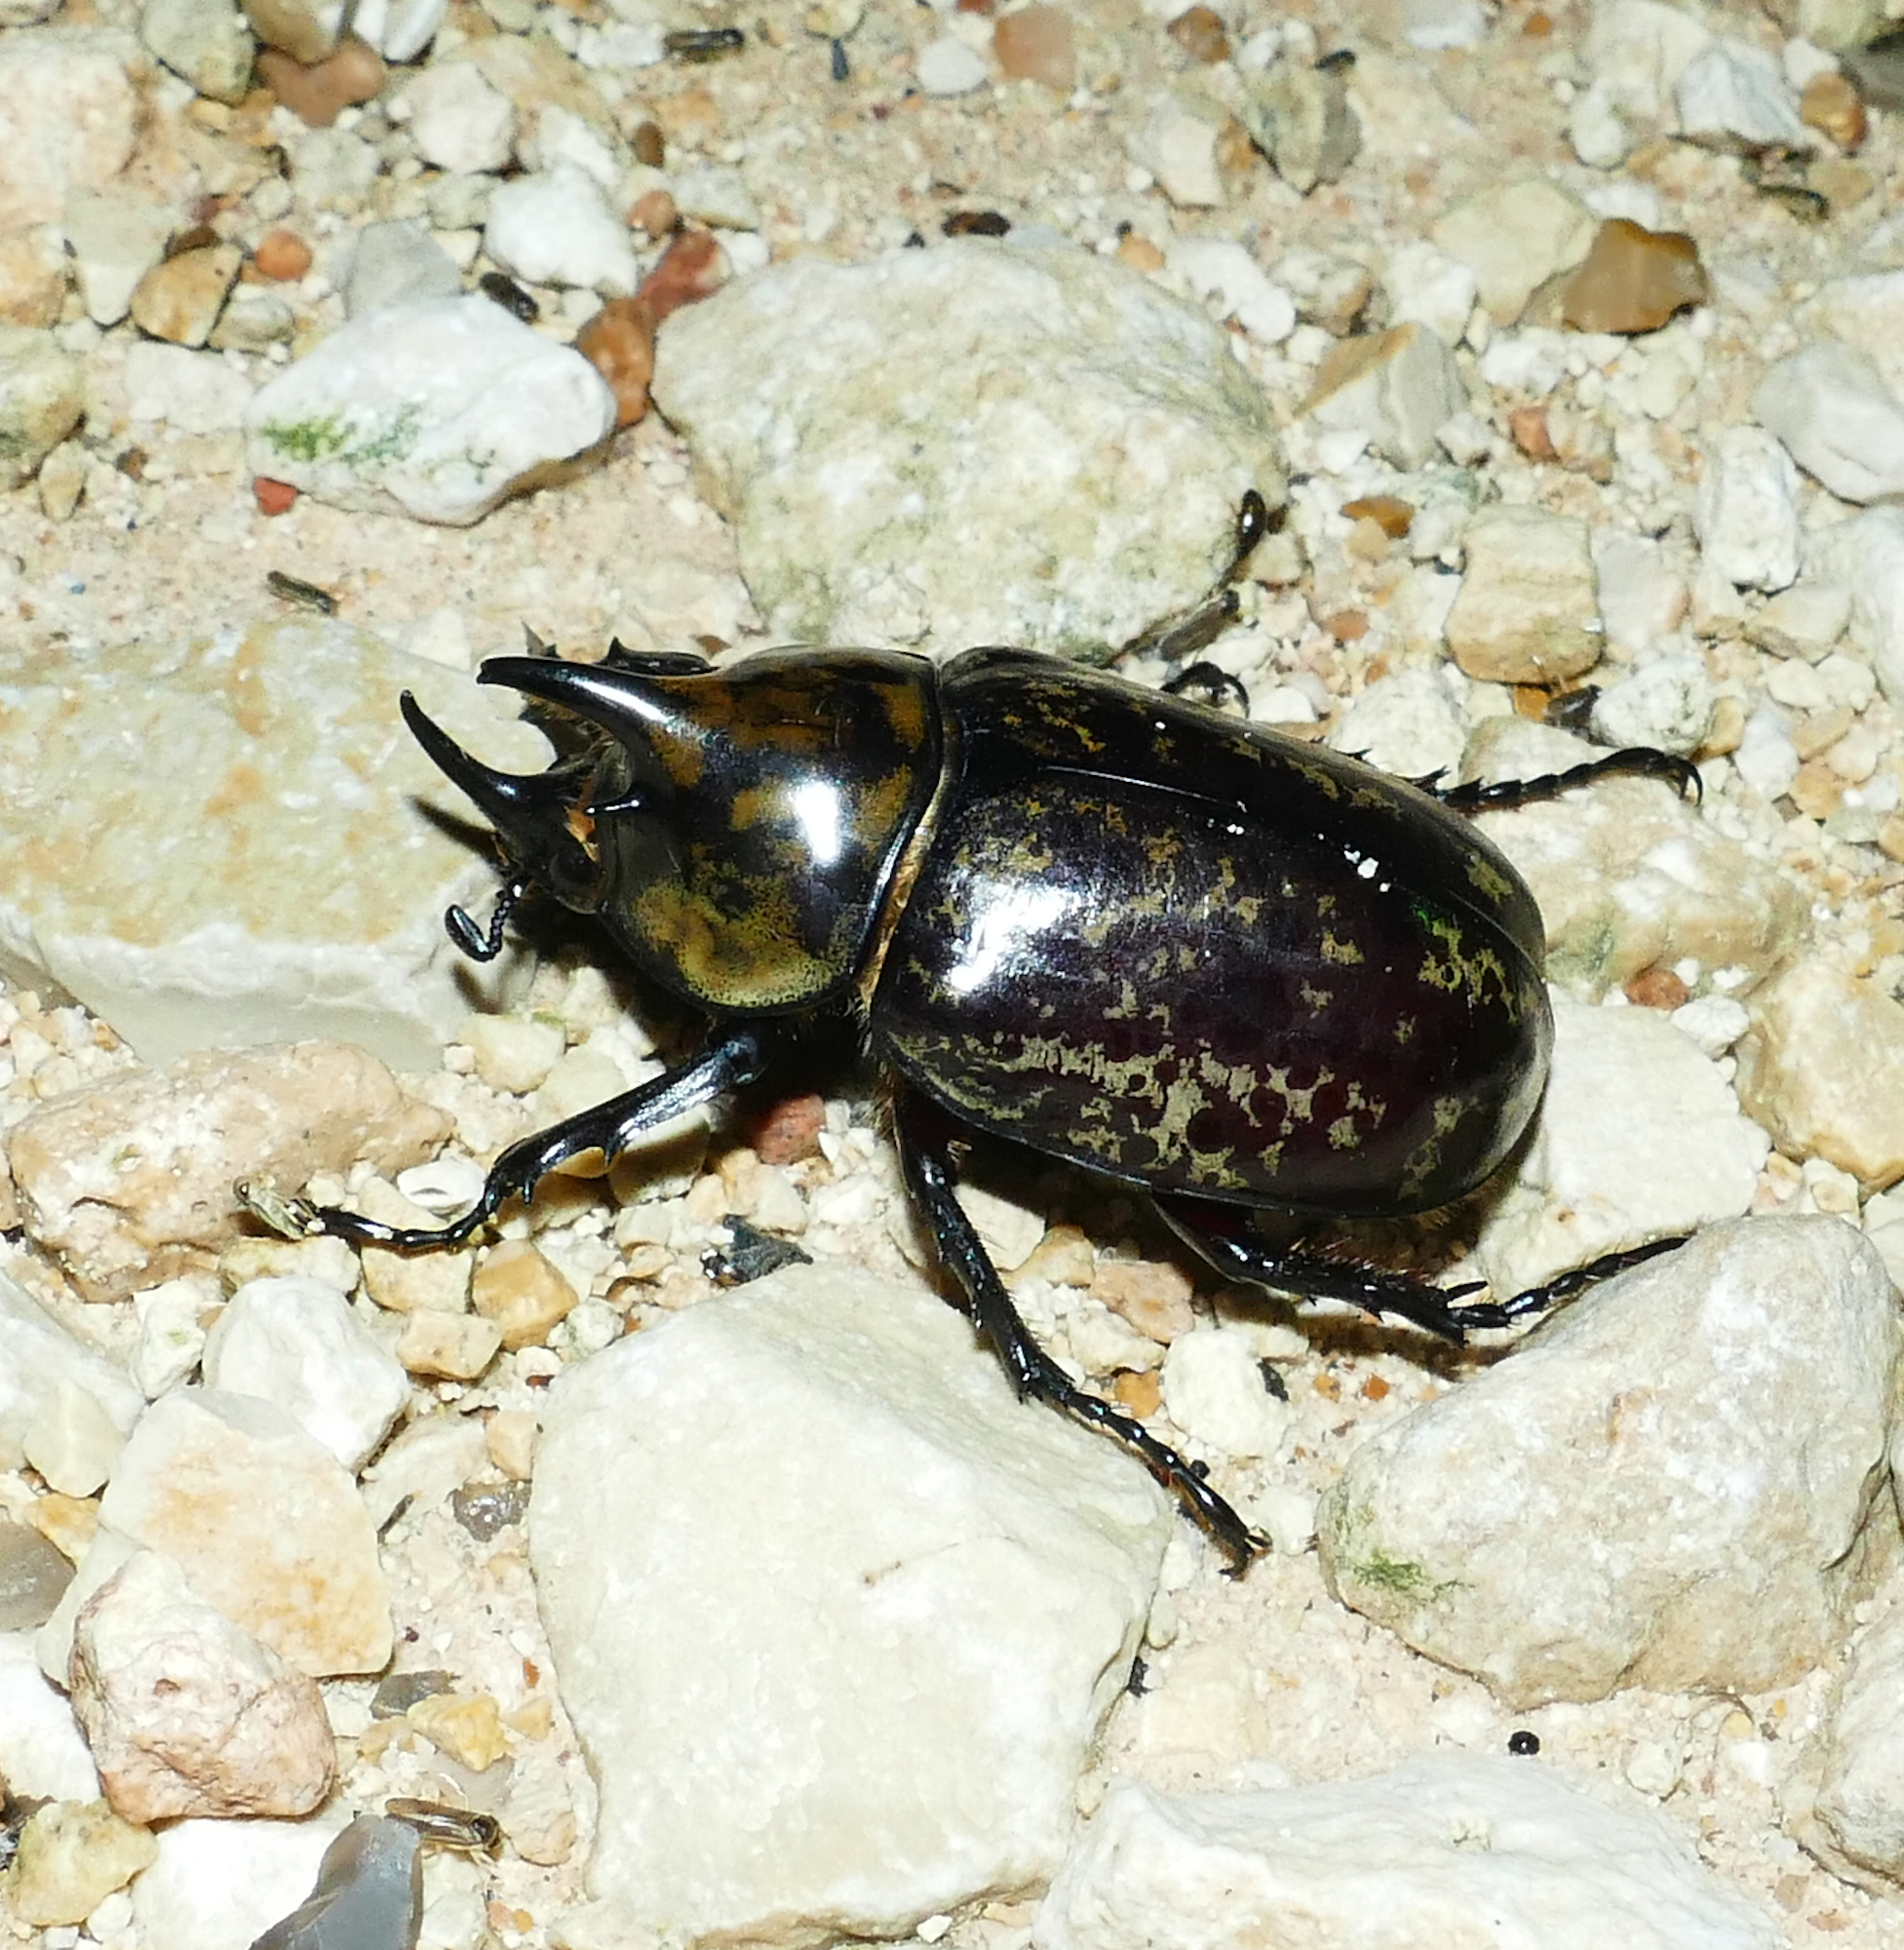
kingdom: Animalia
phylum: Arthropoda
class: Insecta
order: Coleoptera
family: Scarabaeidae
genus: Dynastes
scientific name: Dynastes tityus
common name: Eastern hercules beetle
